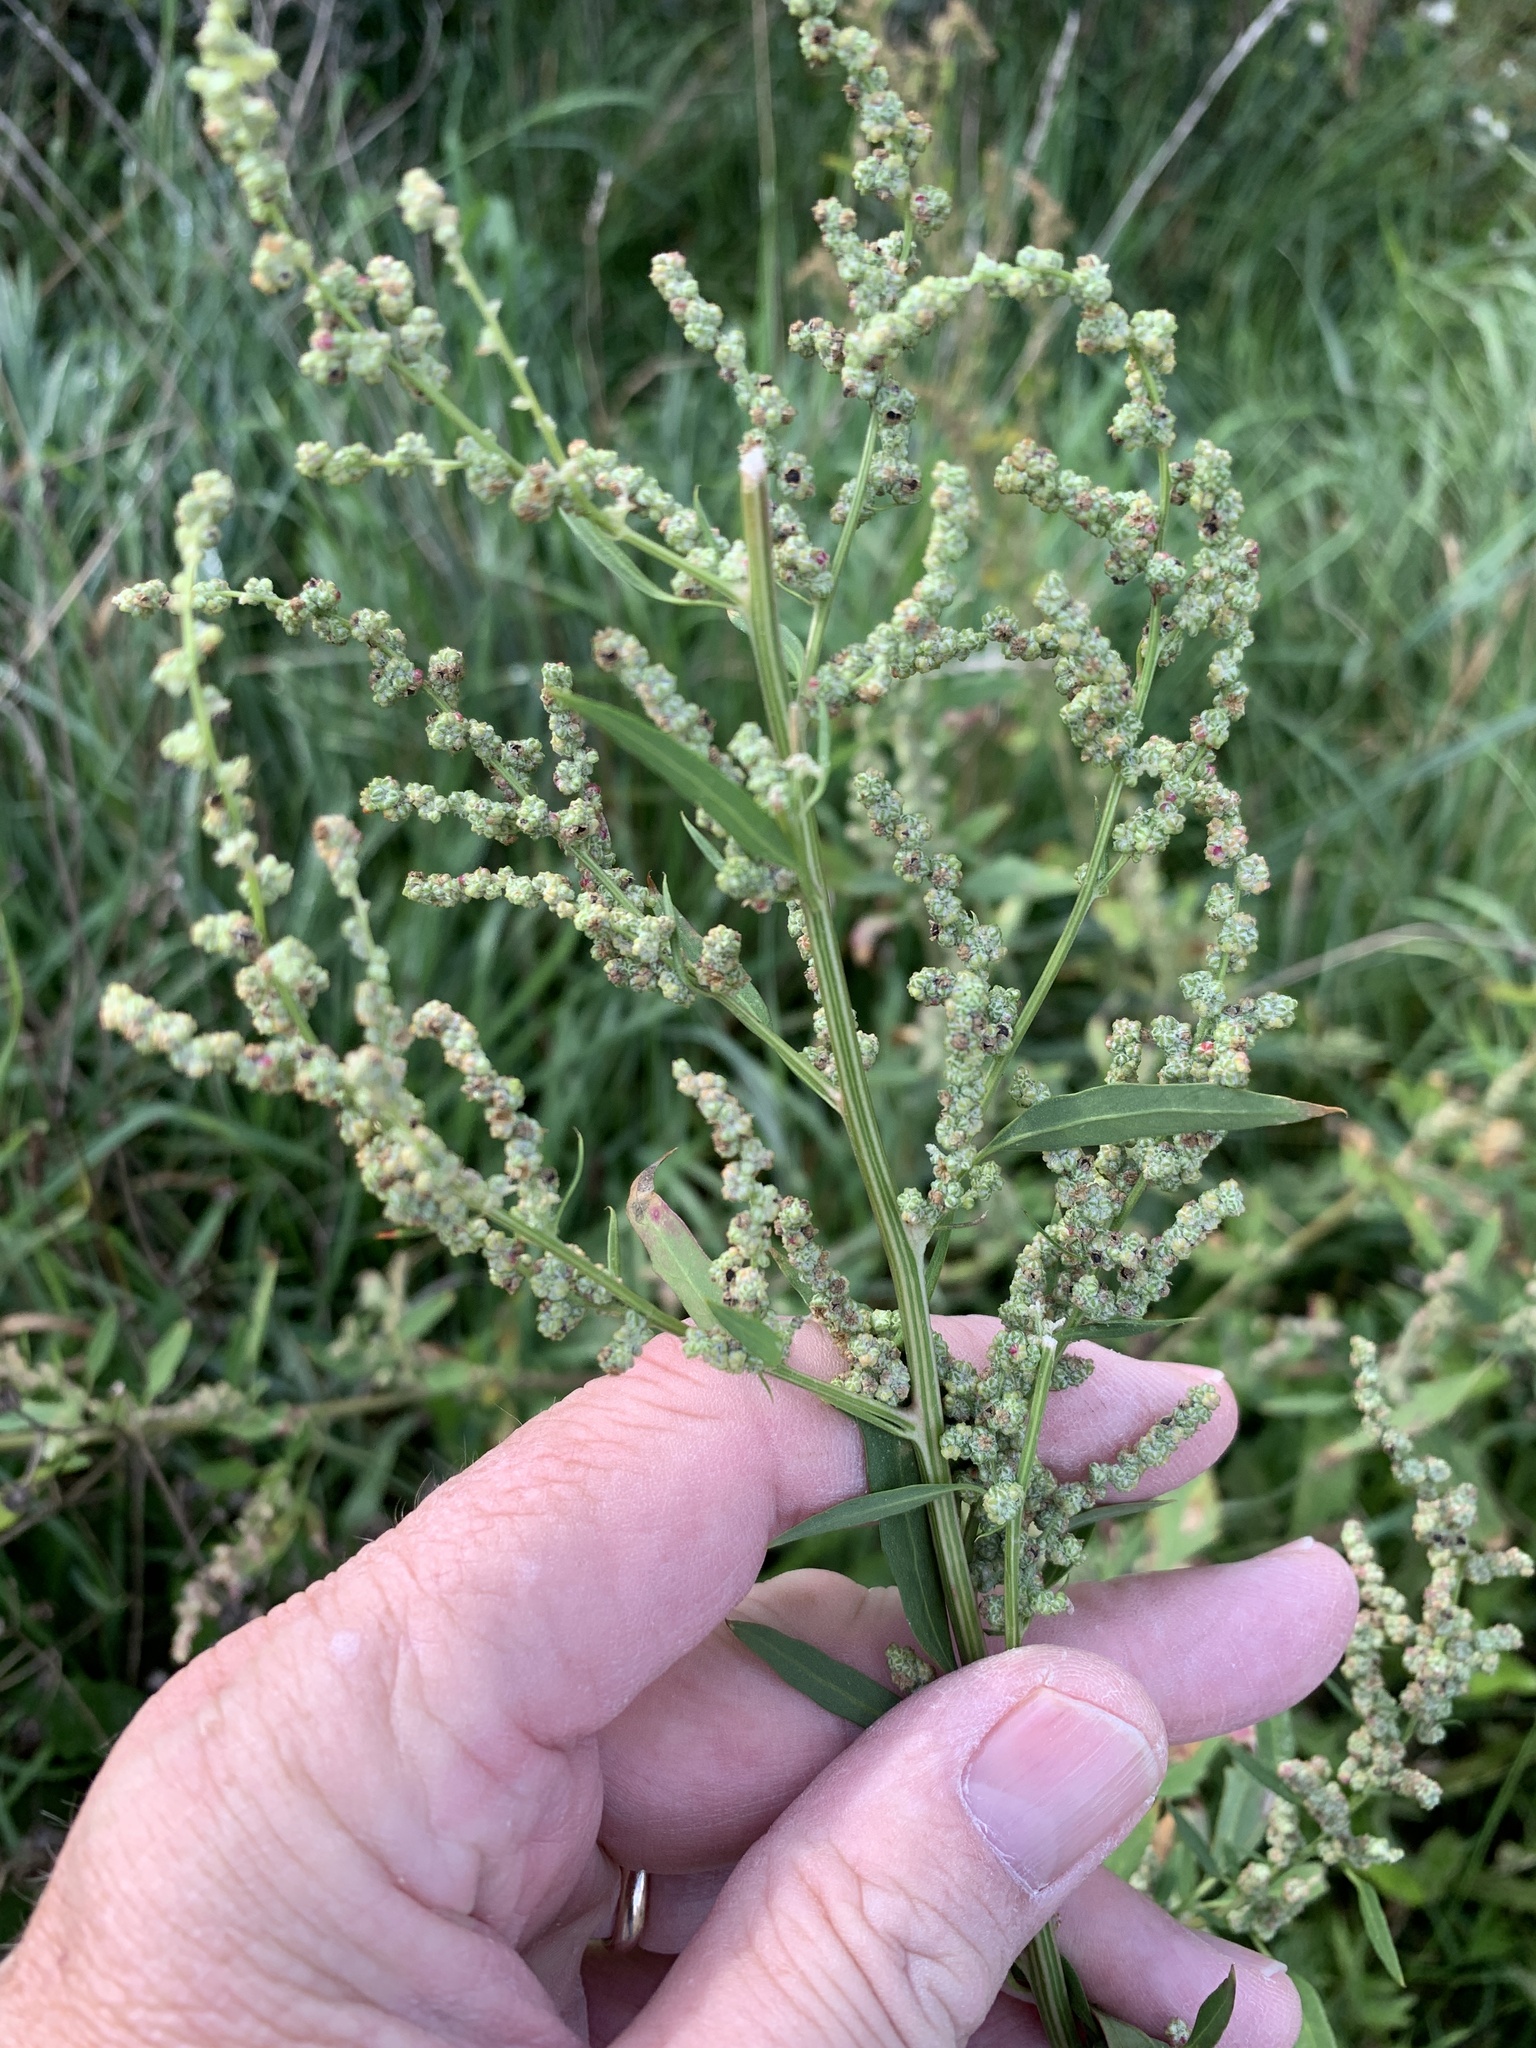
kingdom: Plantae
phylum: Tracheophyta
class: Magnoliopsida
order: Caryophyllales
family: Amaranthaceae
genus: Chenopodium
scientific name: Chenopodium album
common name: Fat-hen
